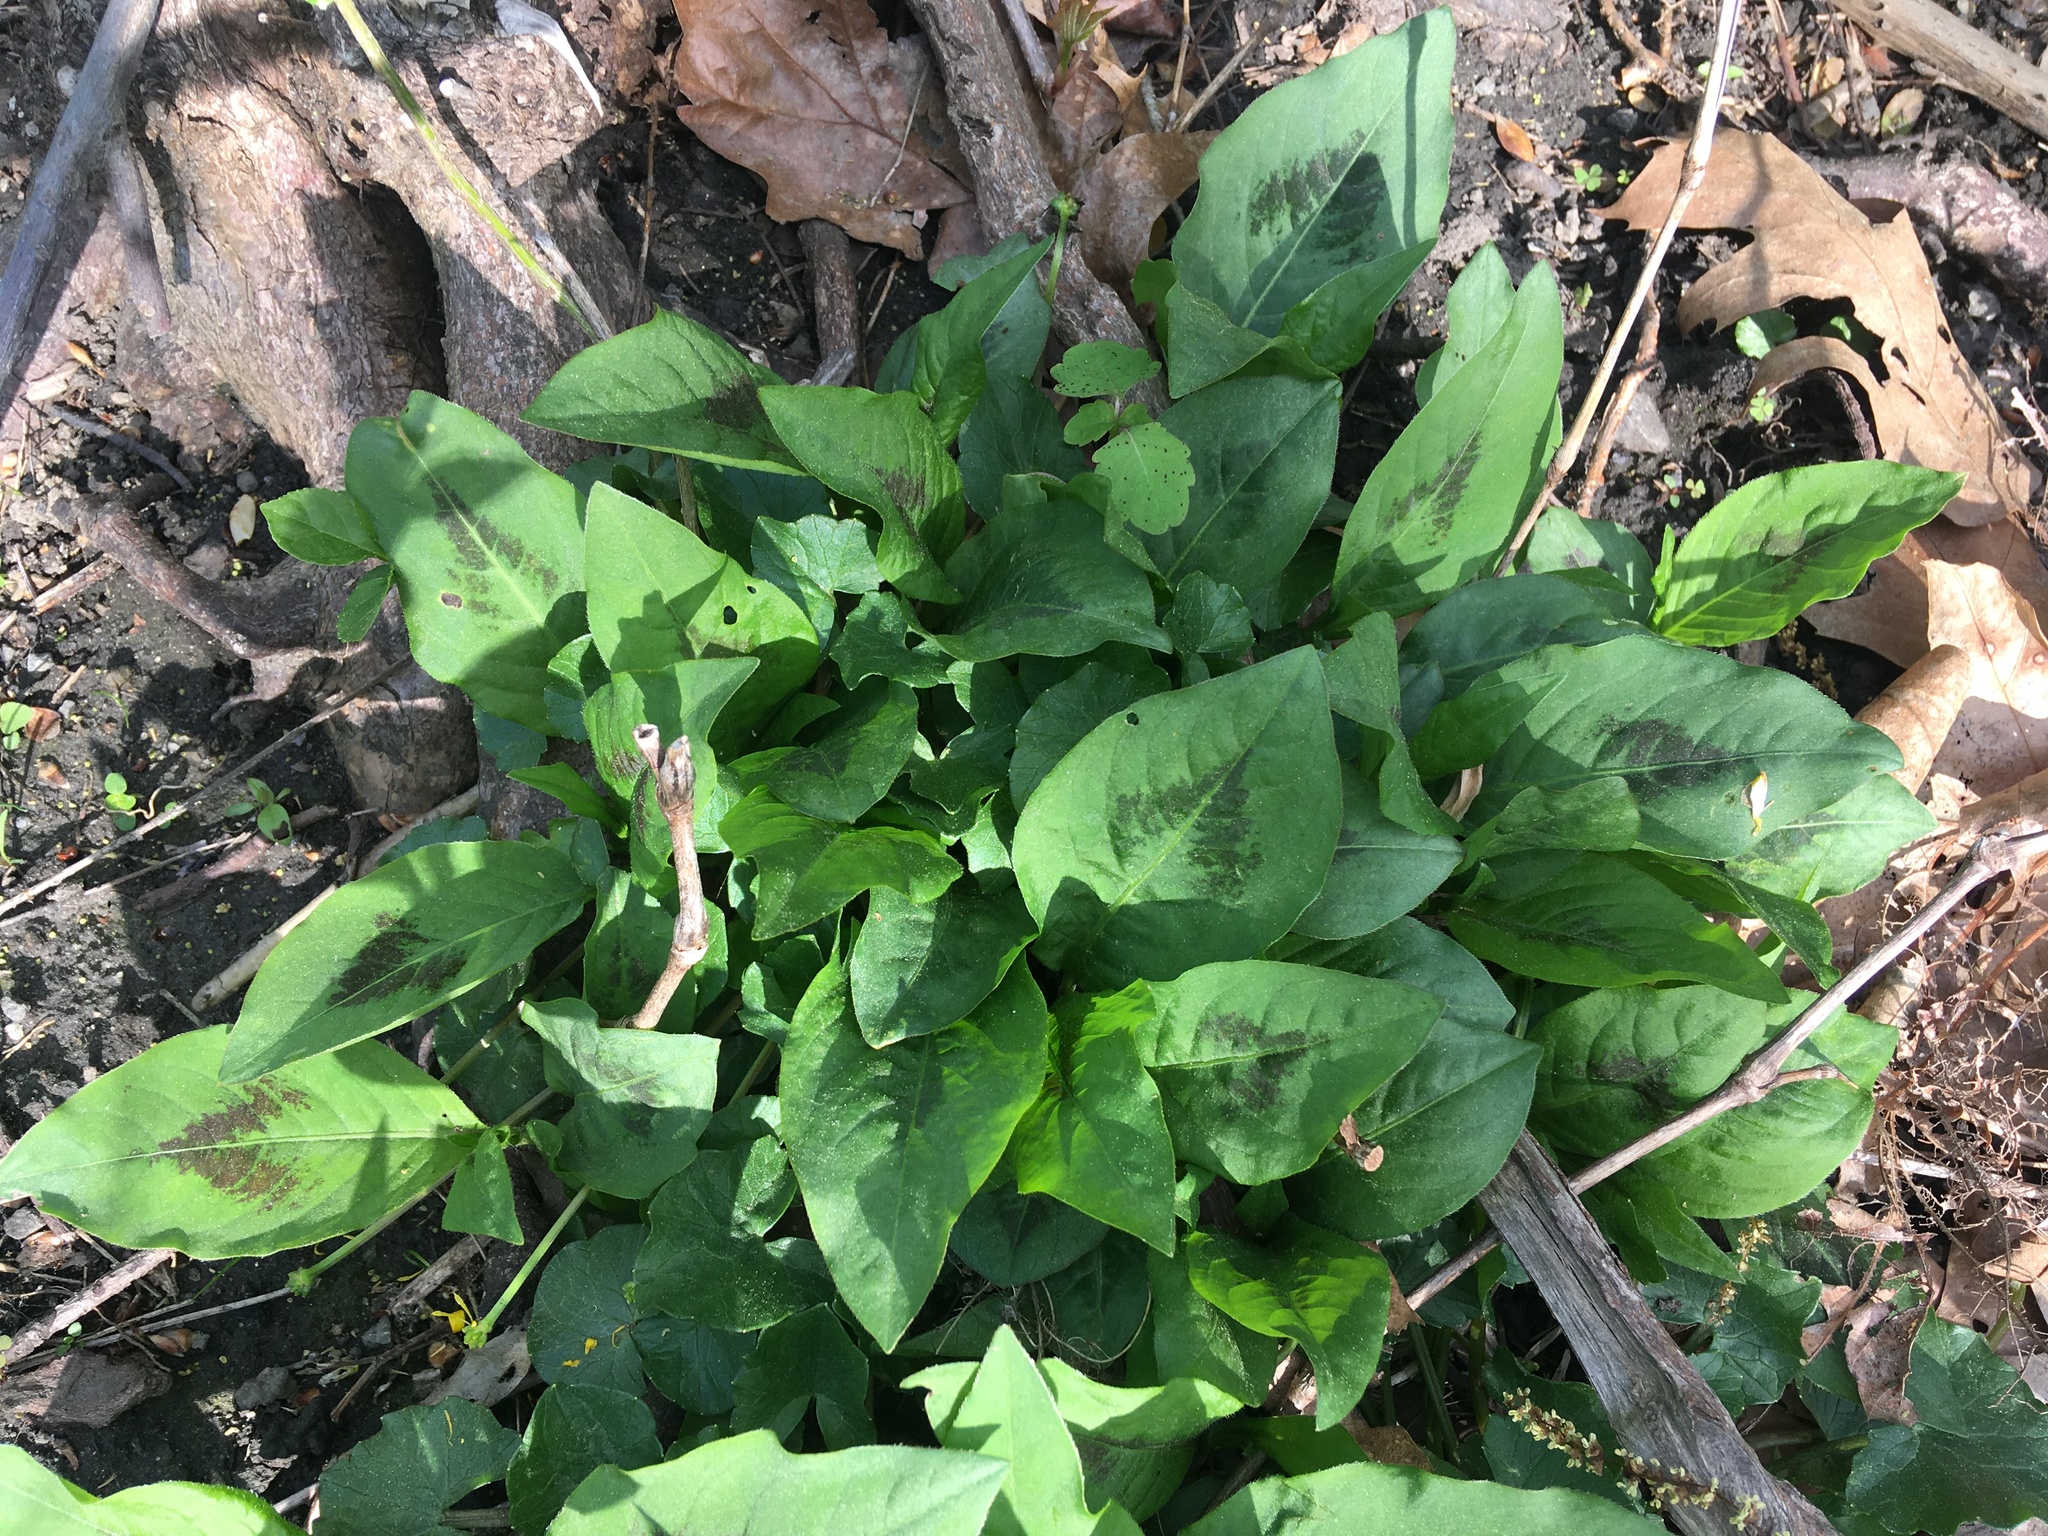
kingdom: Plantae
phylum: Tracheophyta
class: Magnoliopsida
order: Caryophyllales
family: Polygonaceae
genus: Persicaria
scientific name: Persicaria virginiana
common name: Jumpseed
